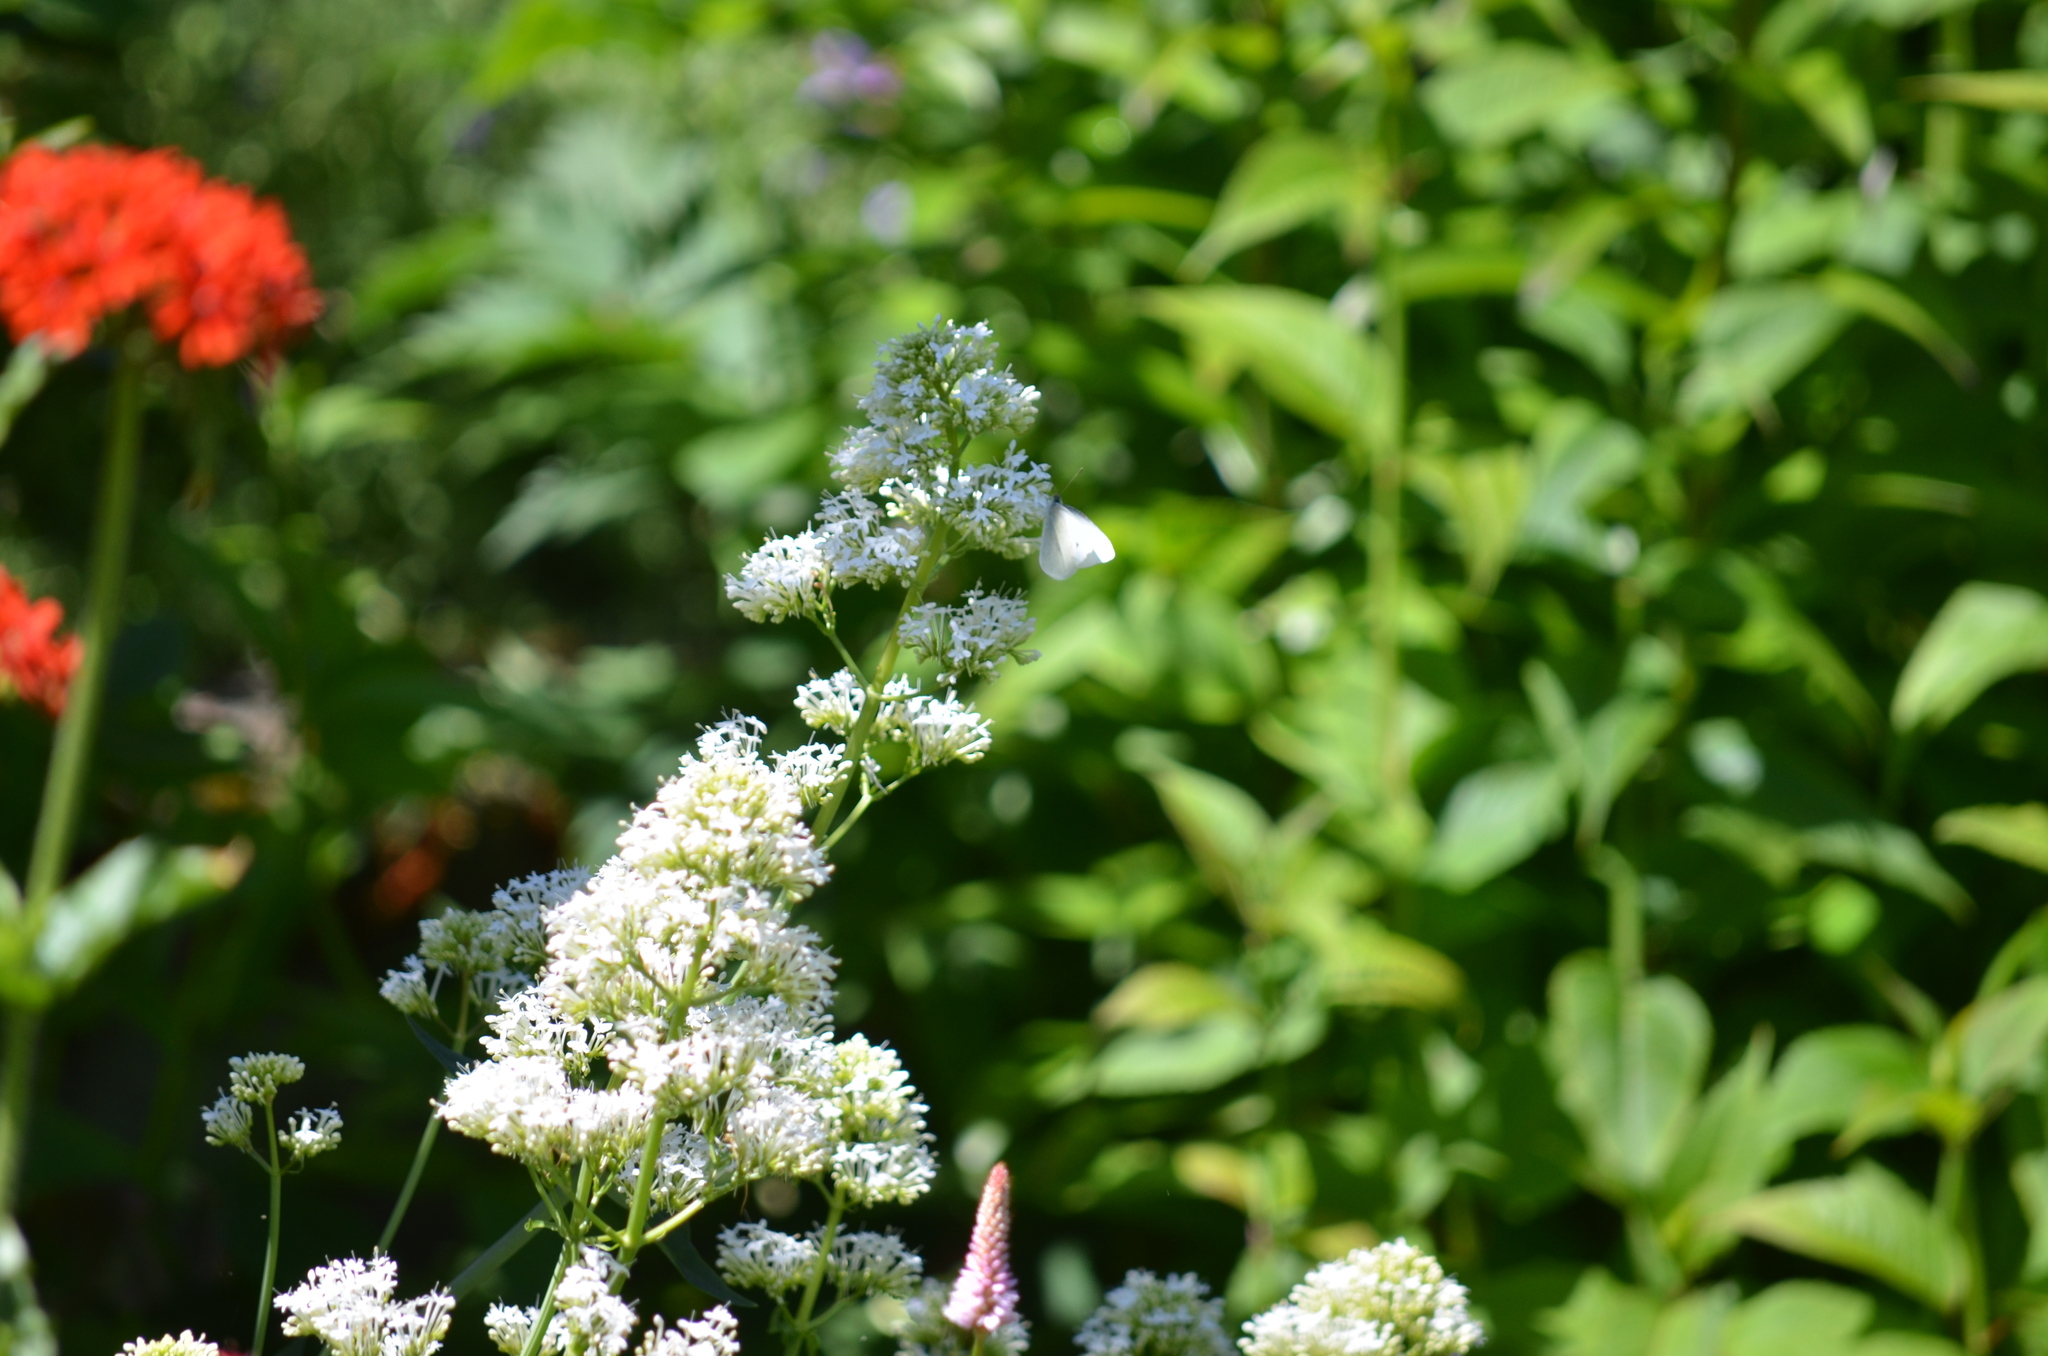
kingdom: Animalia
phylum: Arthropoda
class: Insecta
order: Lepidoptera
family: Pieridae
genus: Pieris
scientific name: Pieris rapae
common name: Small white
